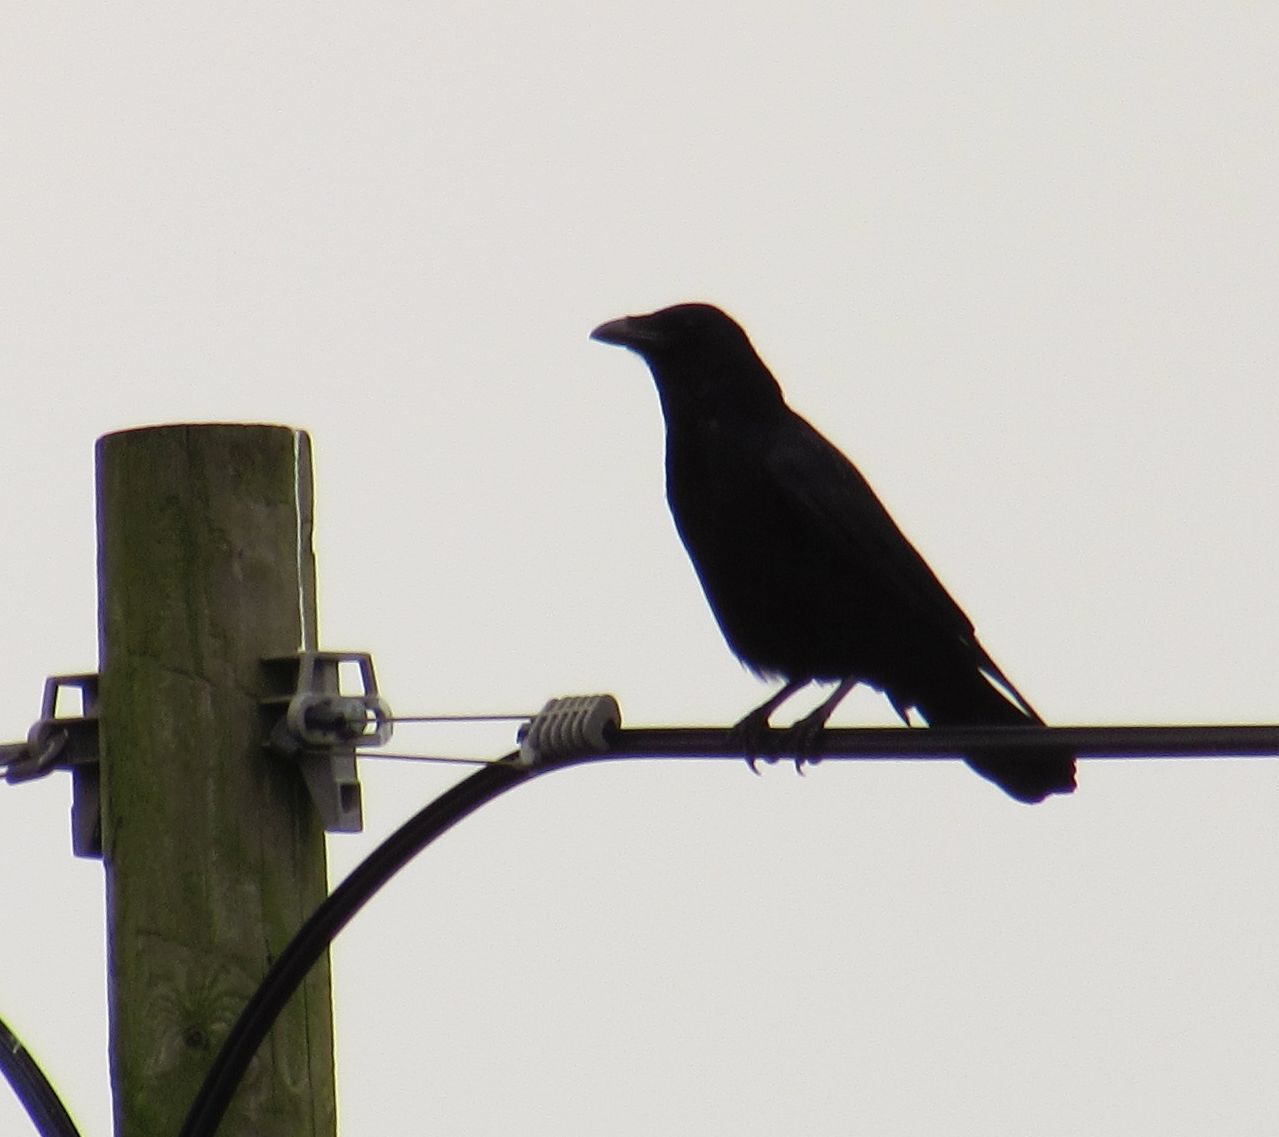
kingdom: Animalia
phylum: Chordata
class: Aves
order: Passeriformes
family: Corvidae
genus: Corvus
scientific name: Corvus corone
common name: Carrion crow
